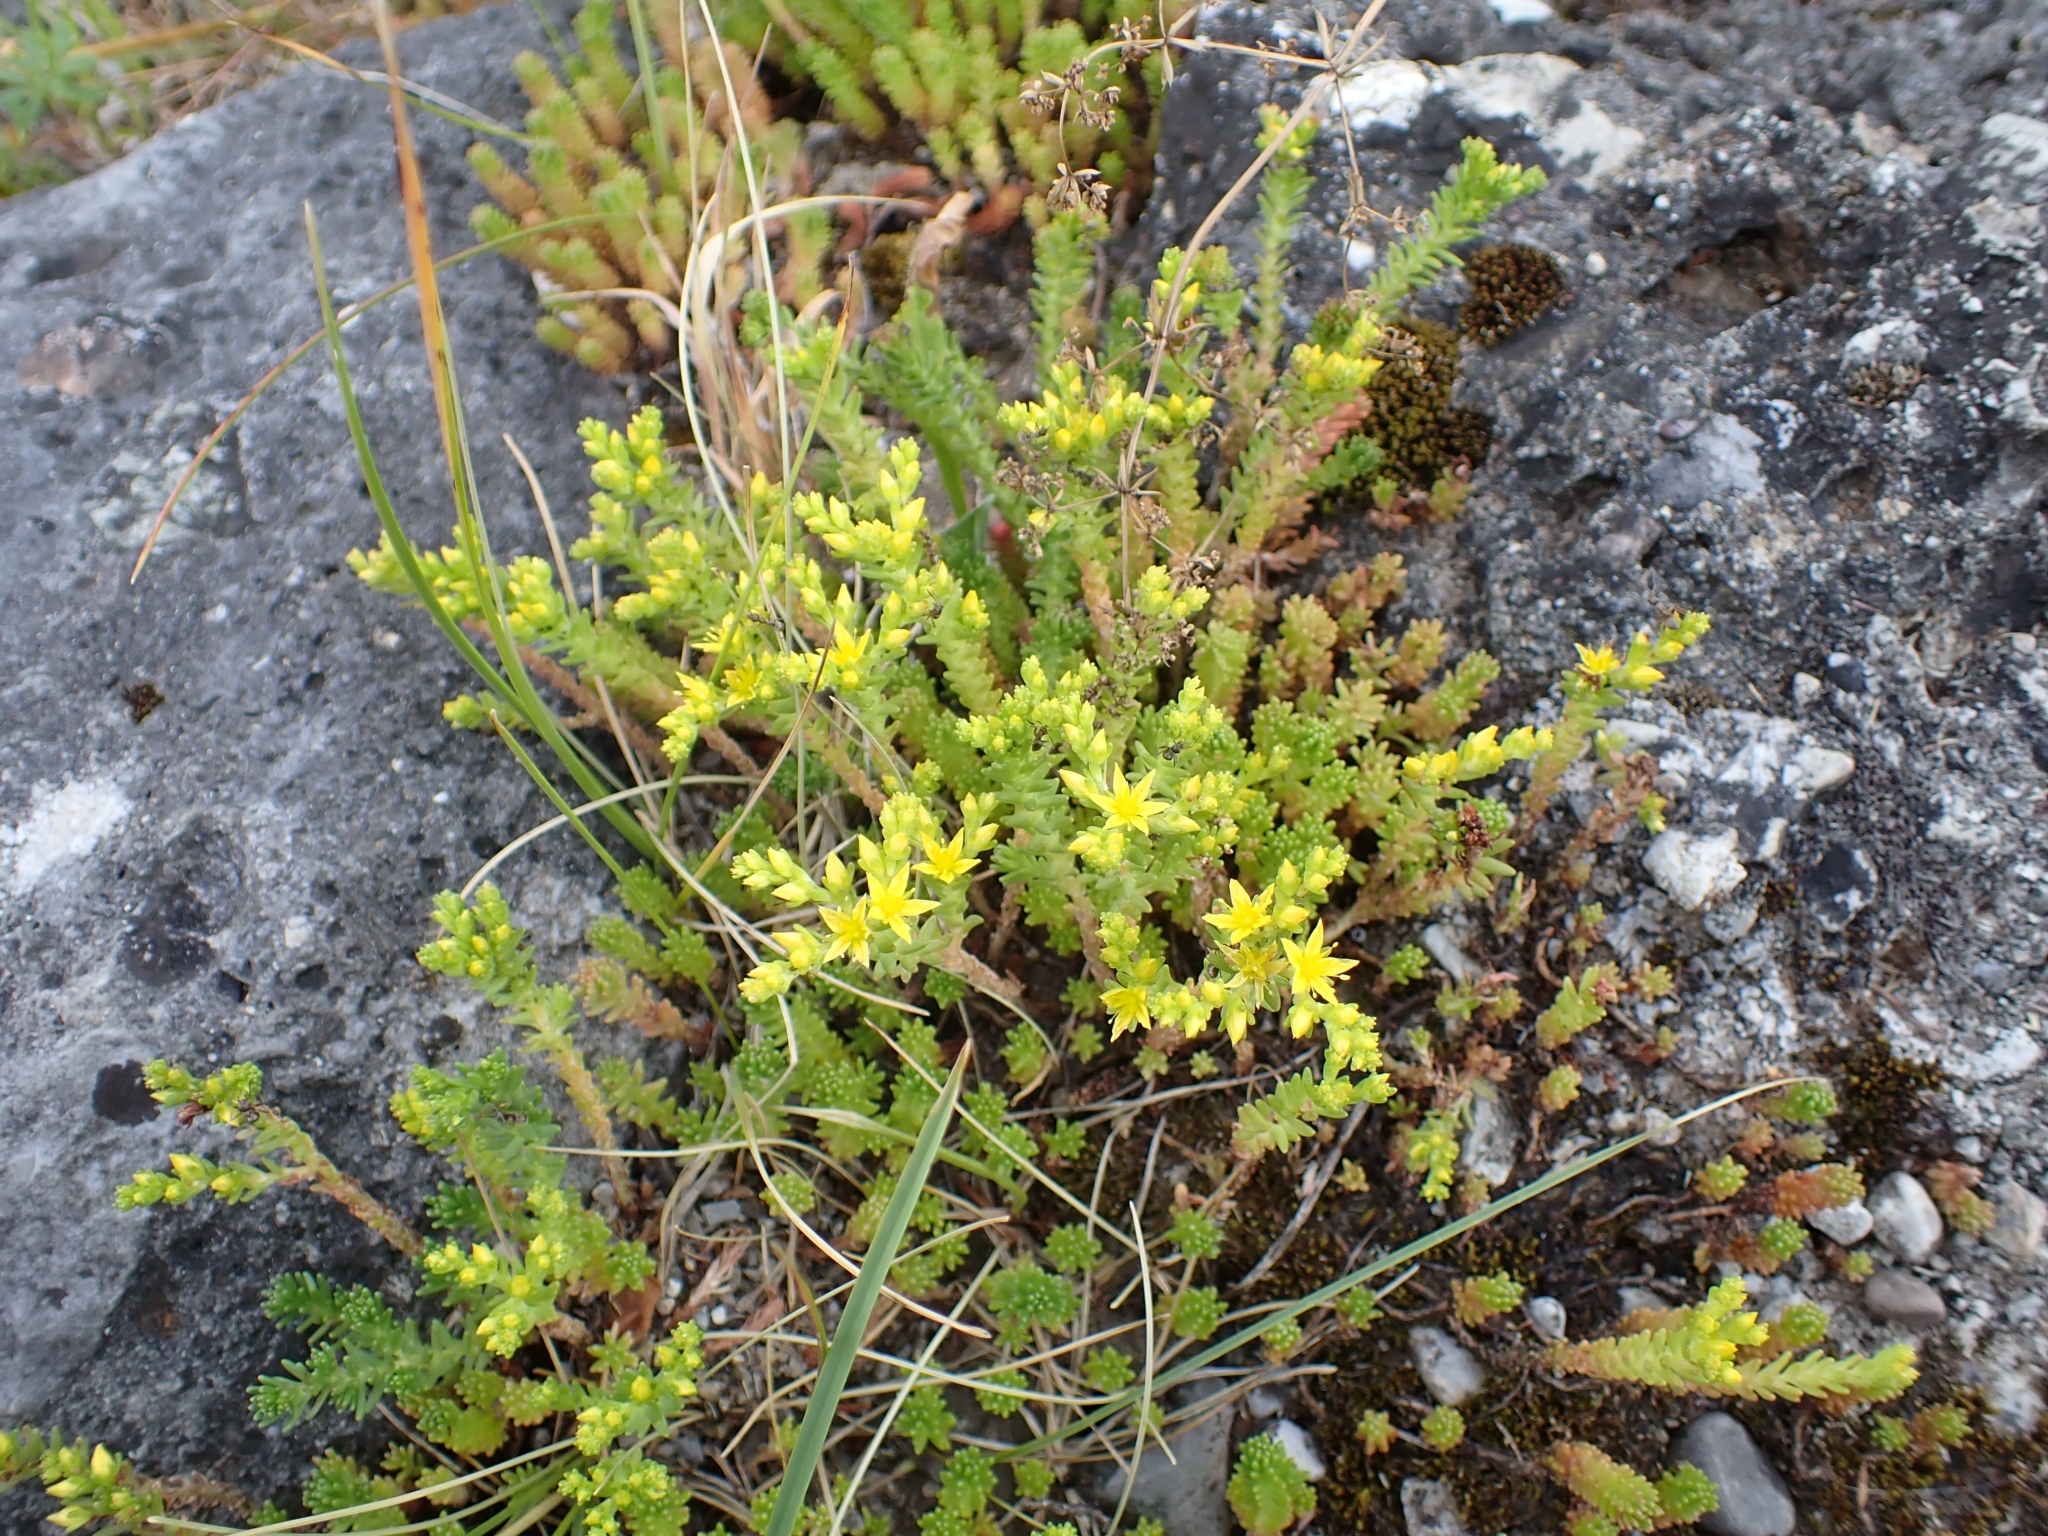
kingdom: Plantae
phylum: Tracheophyta
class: Magnoliopsida
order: Saxifragales
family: Crassulaceae
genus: Sedum
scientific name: Sedum sexangulare
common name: Tasteless stonecrop
